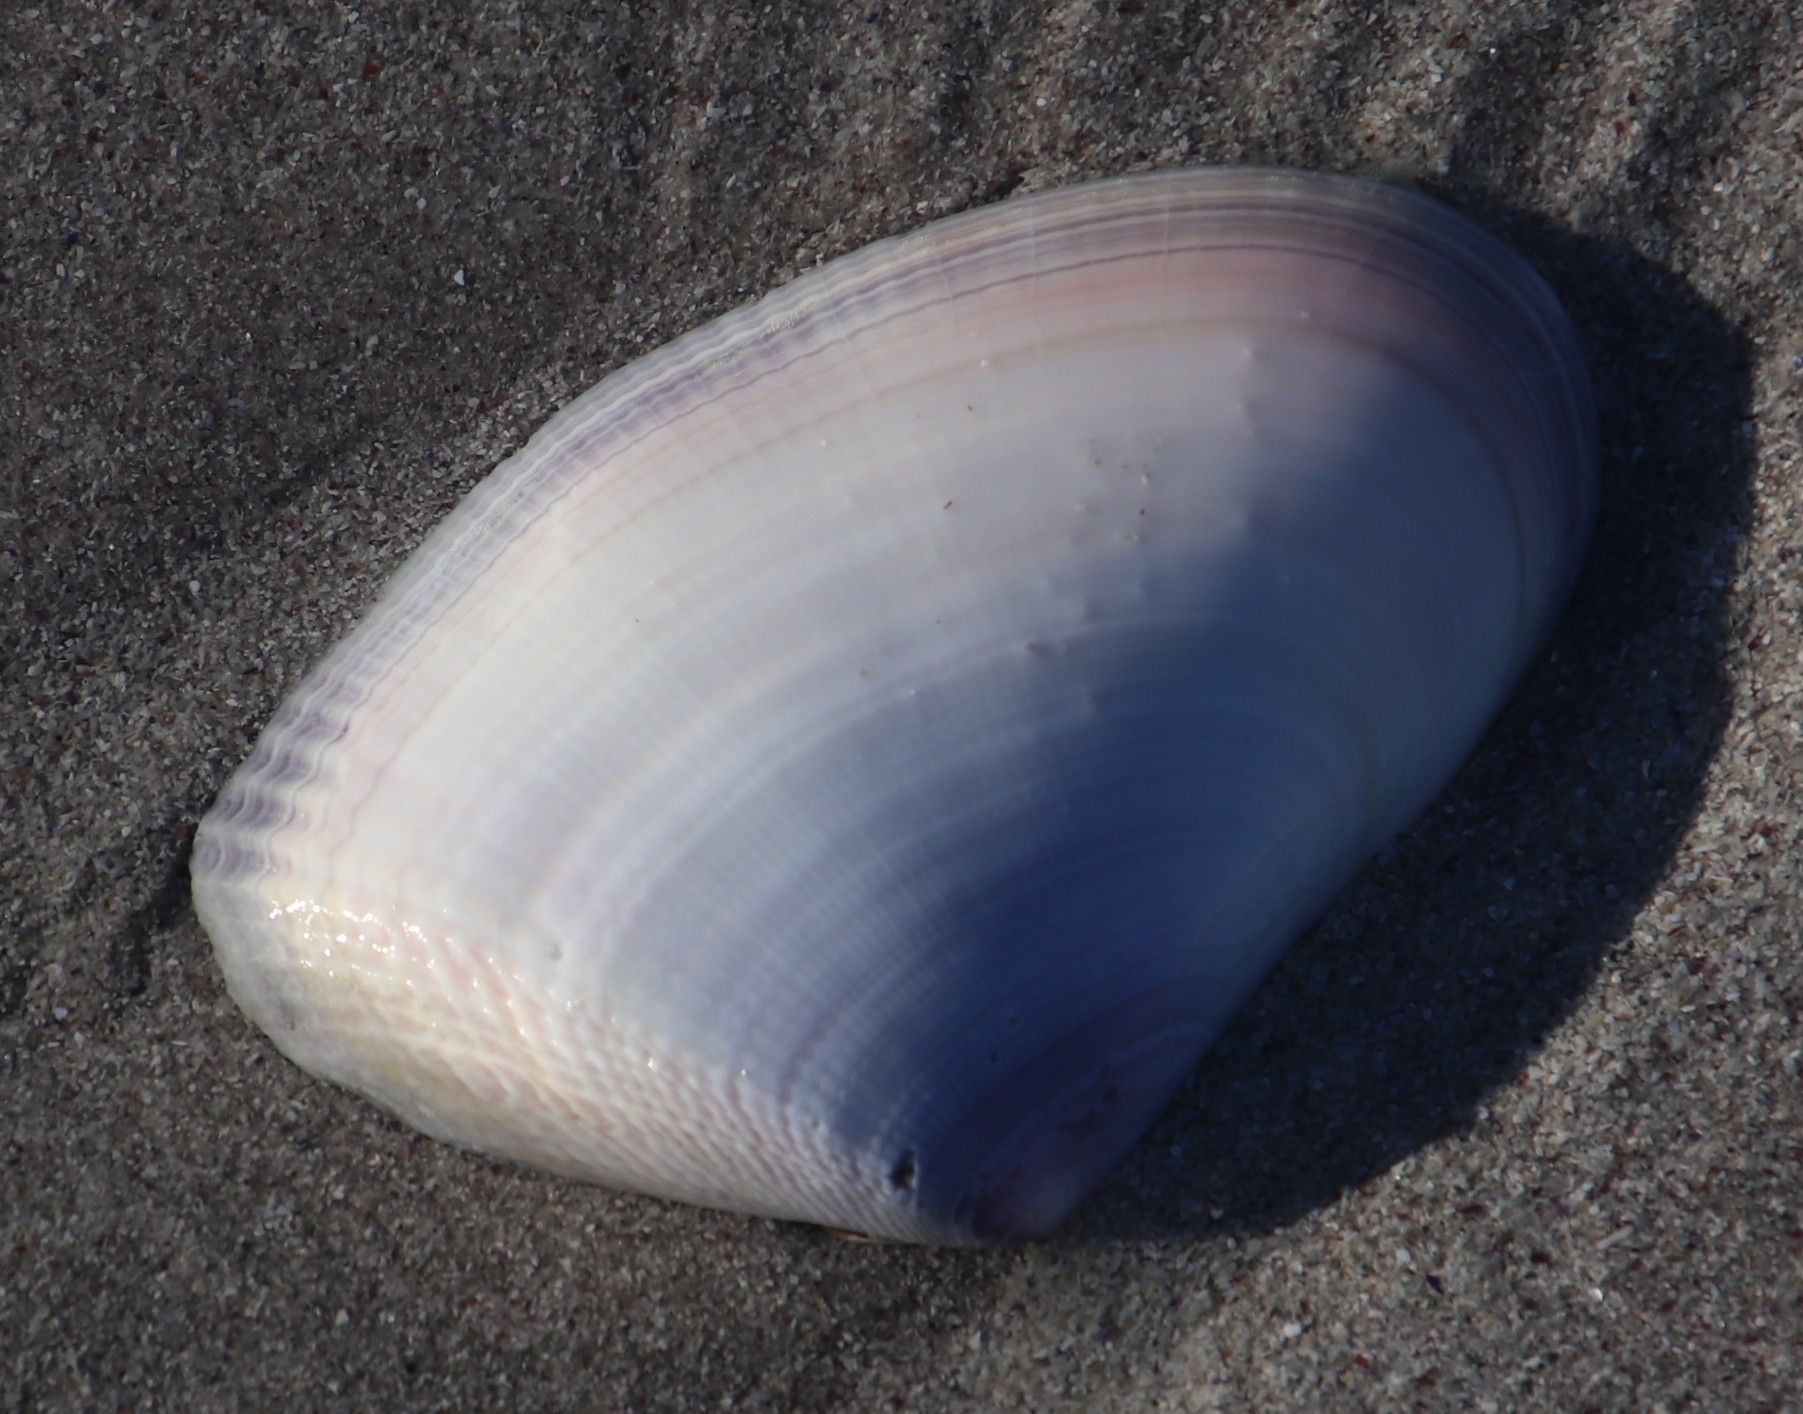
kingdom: Animalia
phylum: Mollusca
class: Bivalvia
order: Cardiida
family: Donacidae
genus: Donax
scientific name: Donax serra
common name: Giant south african wedge clam
